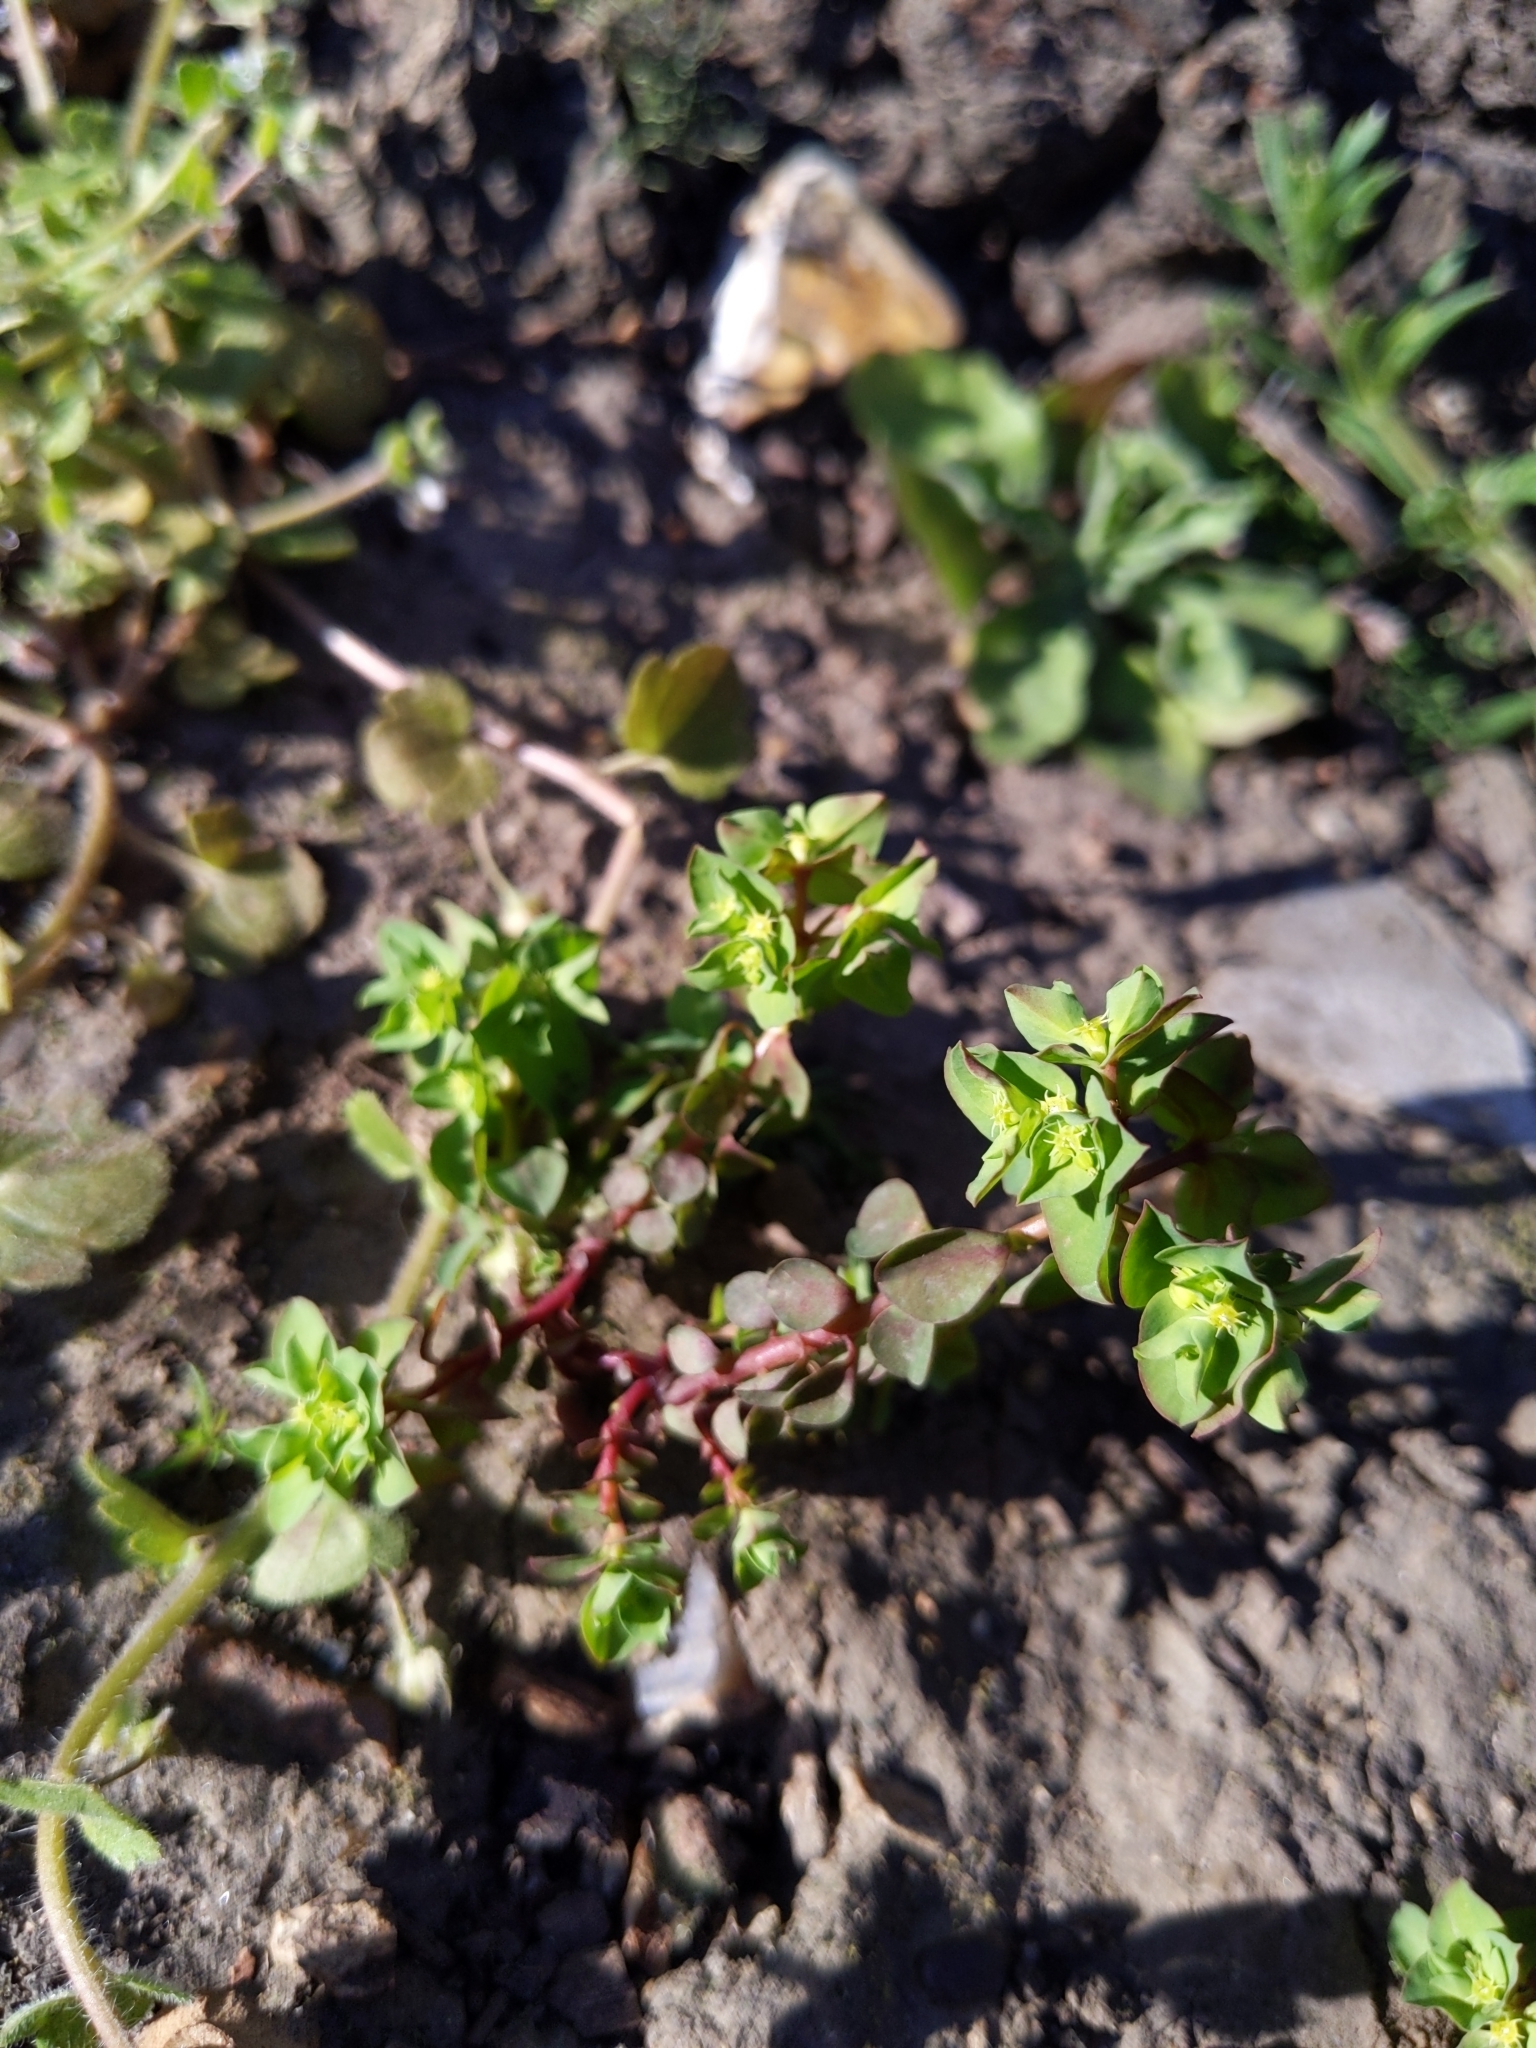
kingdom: Plantae
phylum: Tracheophyta
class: Magnoliopsida
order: Malpighiales
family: Euphorbiaceae
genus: Euphorbia
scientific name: Euphorbia peplus
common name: Petty spurge
